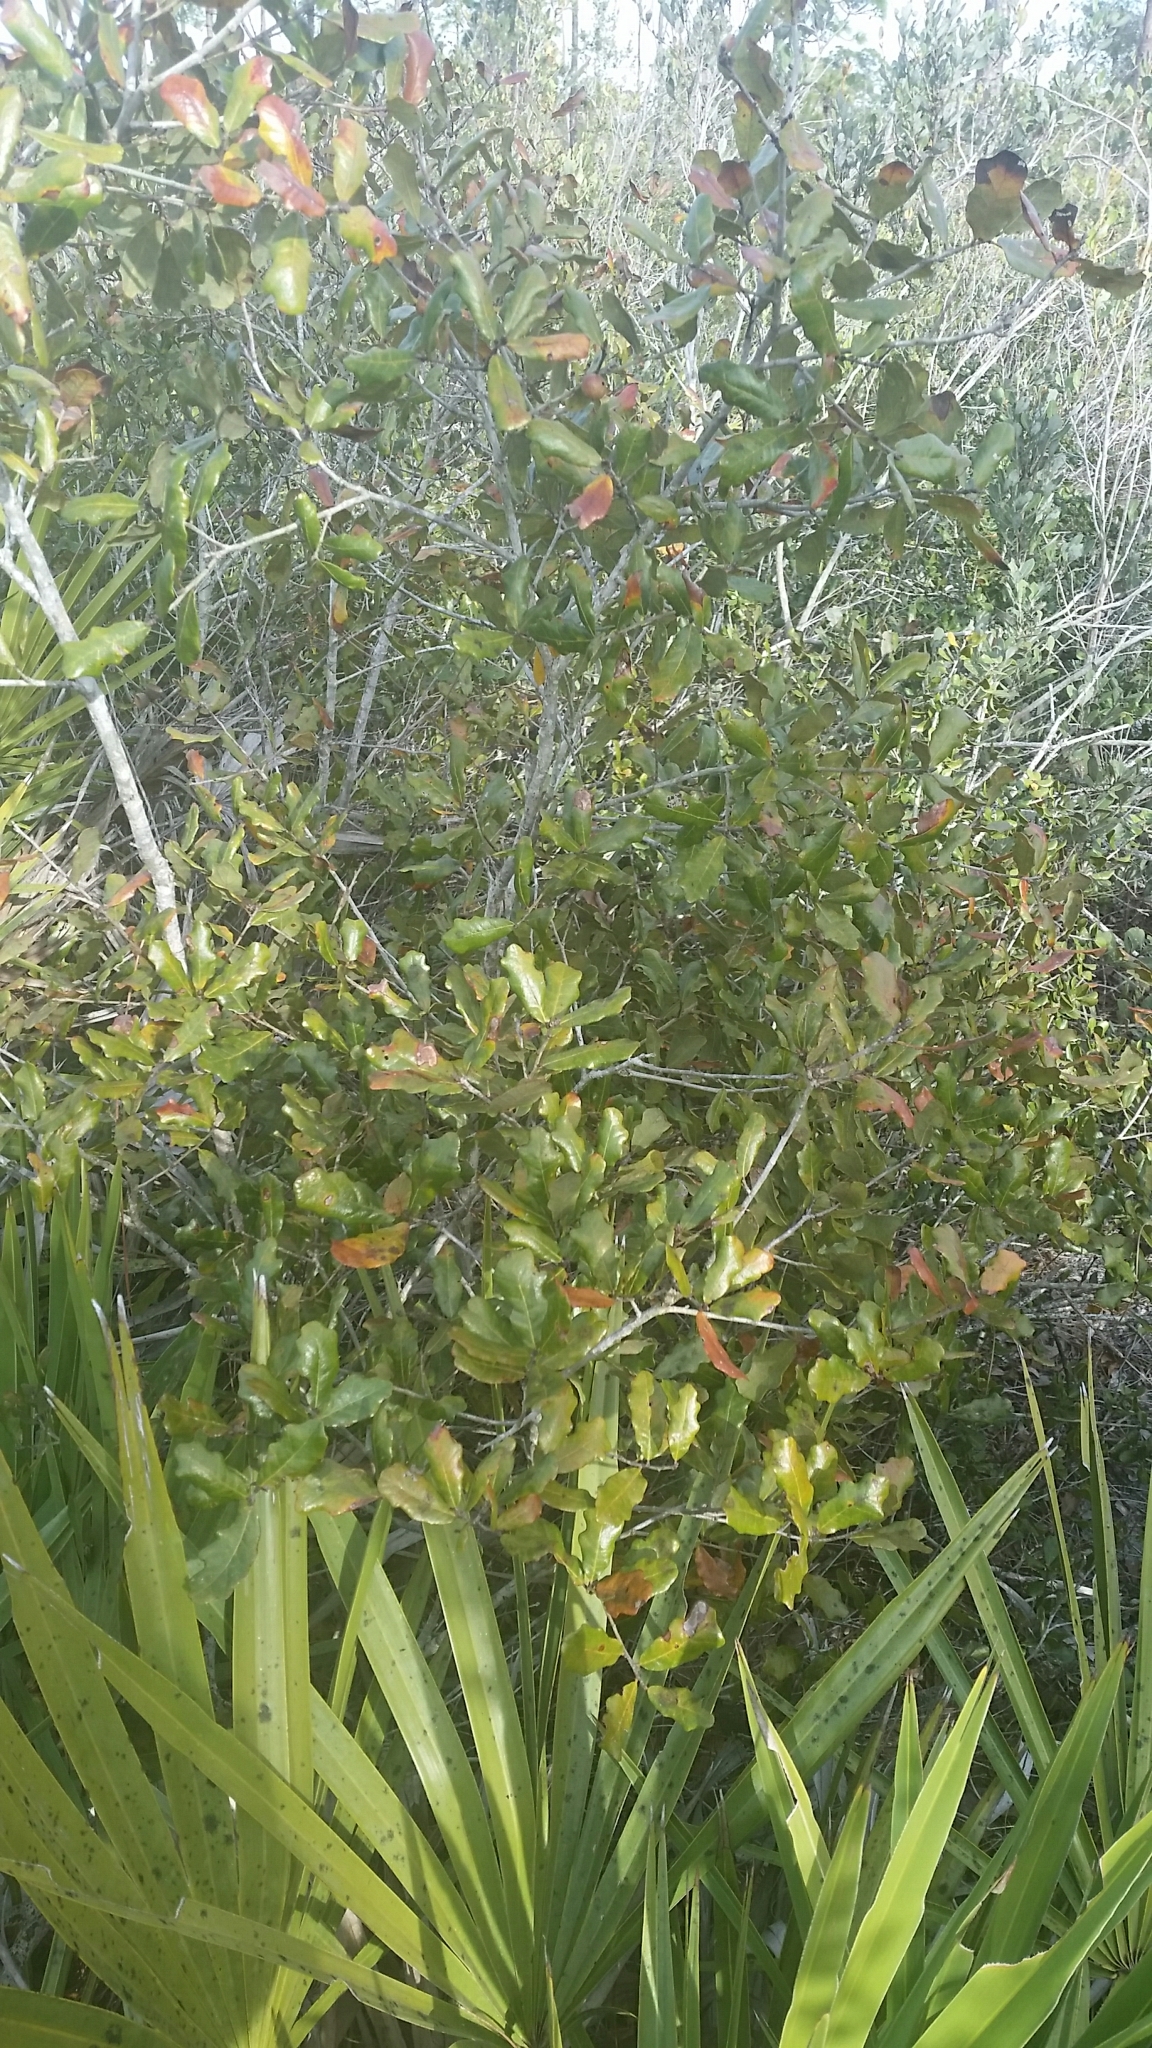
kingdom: Plantae
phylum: Tracheophyta
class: Magnoliopsida
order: Fagales
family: Fagaceae
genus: Quercus
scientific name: Quercus chapmanii
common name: Chapman oak
